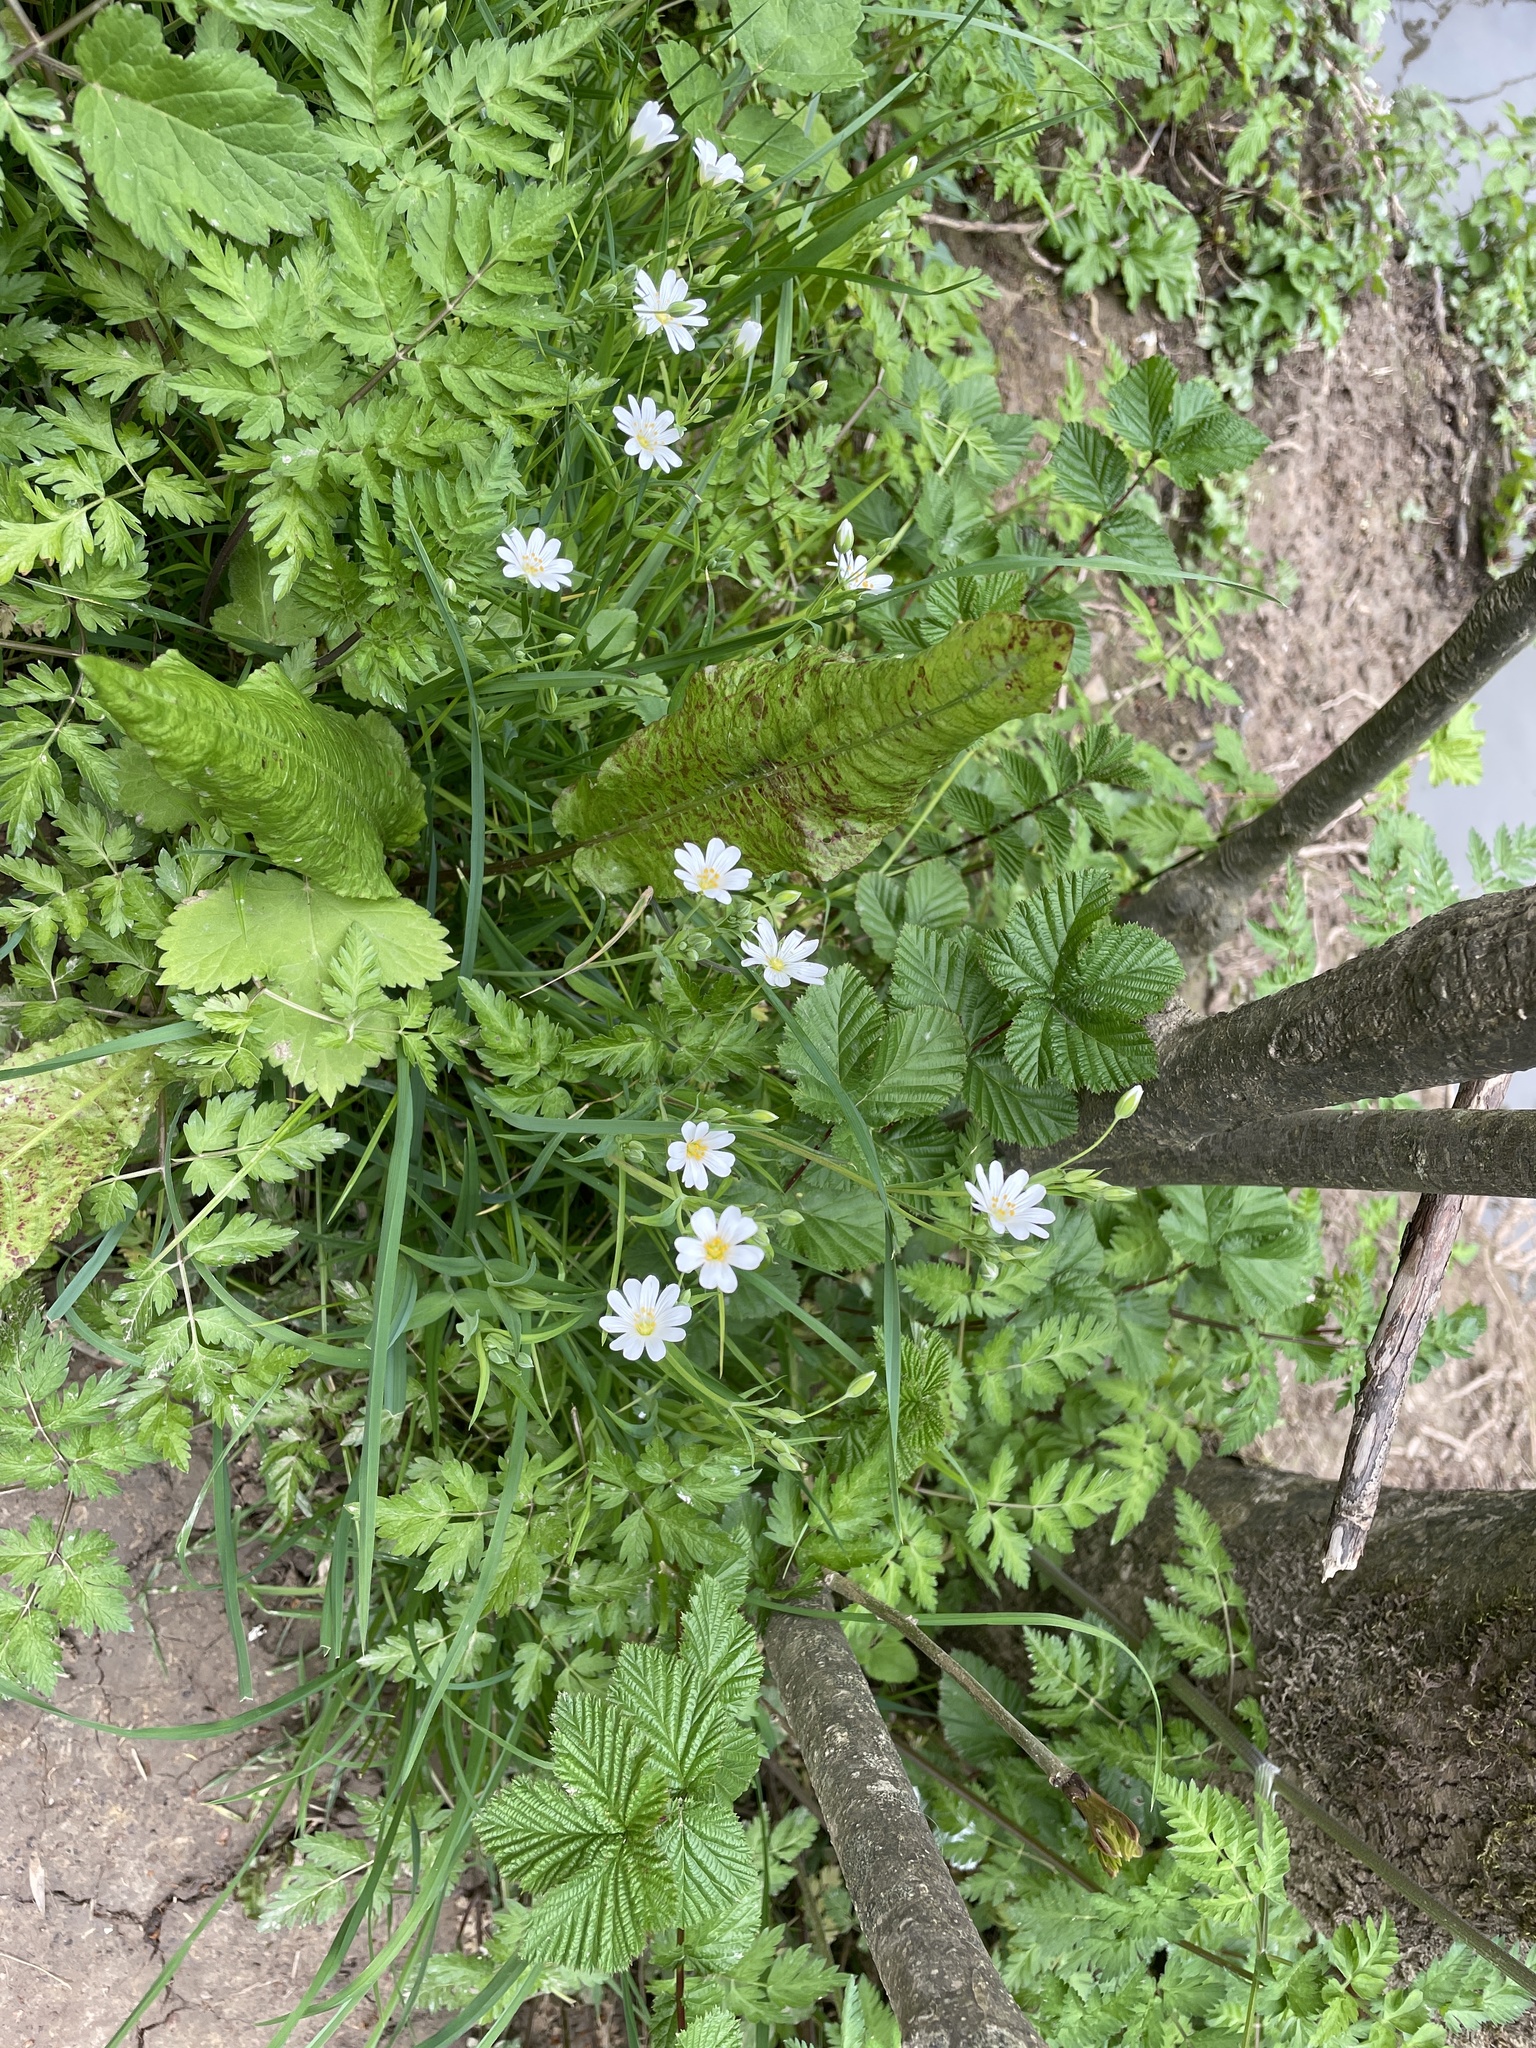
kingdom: Plantae
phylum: Tracheophyta
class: Magnoliopsida
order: Caryophyllales
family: Caryophyllaceae
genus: Rabelera
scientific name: Rabelera holostea
